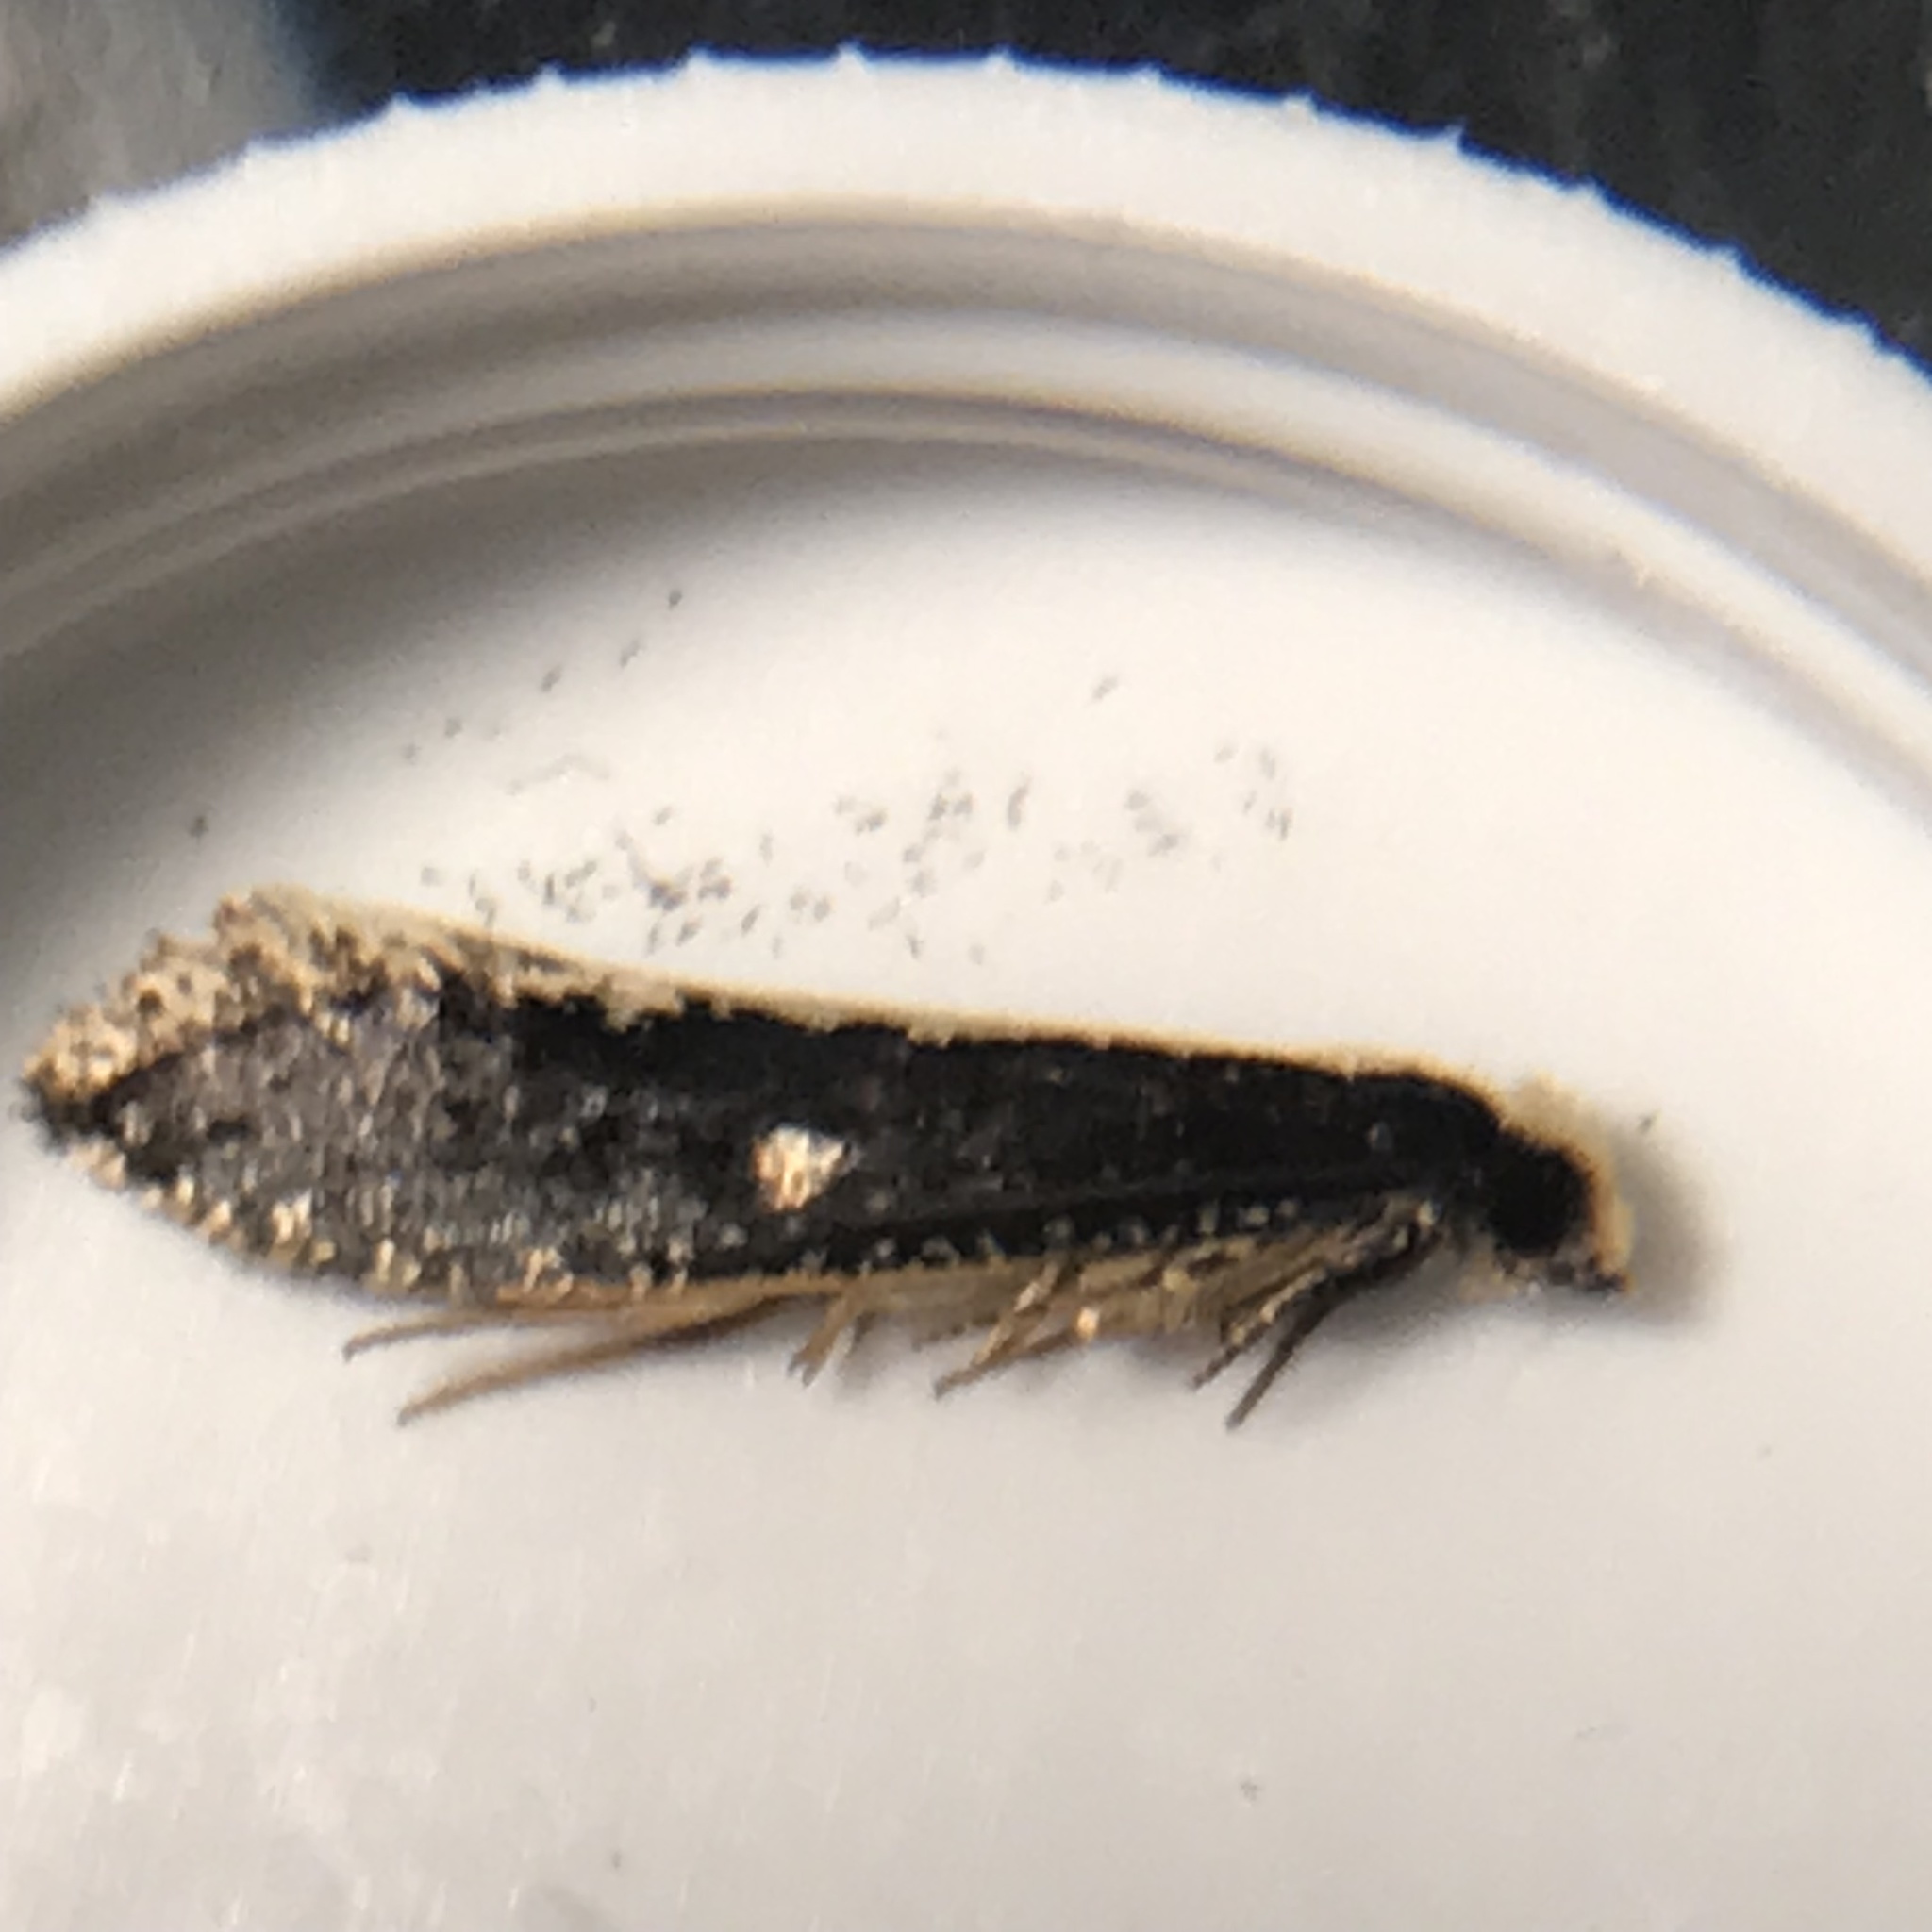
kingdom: Animalia
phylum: Arthropoda
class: Insecta
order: Lepidoptera
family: Tineidae
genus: Monopis
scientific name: Monopis ethelella
